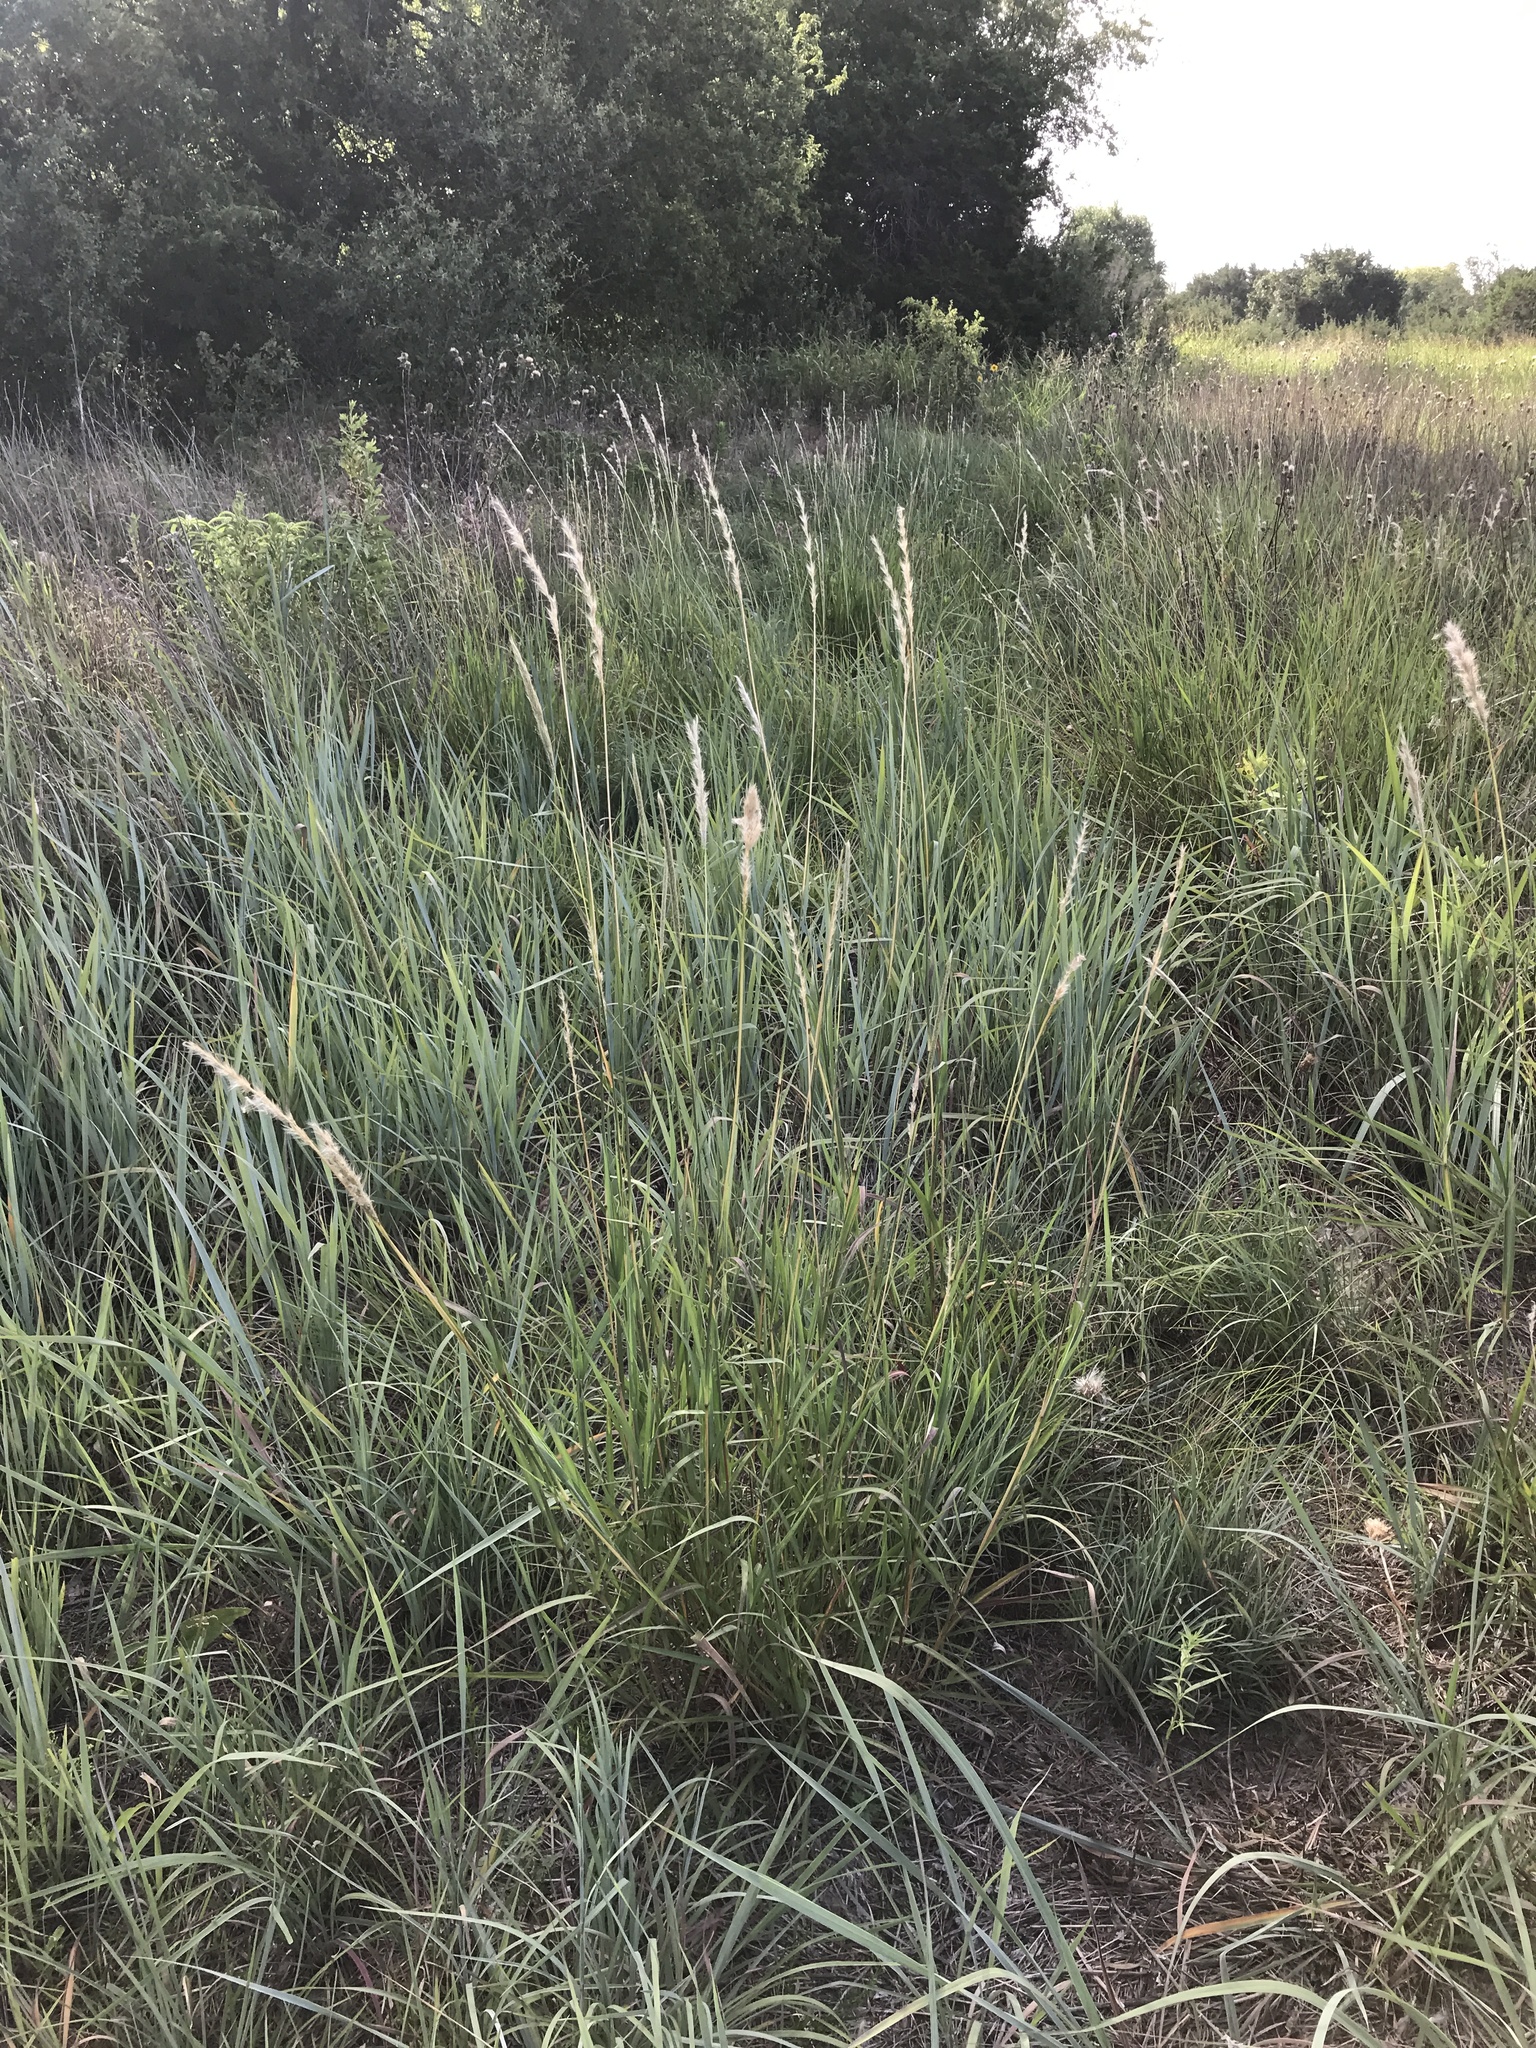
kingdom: Plantae
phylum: Tracheophyta
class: Liliopsida
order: Poales
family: Poaceae
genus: Bothriochloa
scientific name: Bothriochloa torreyana
